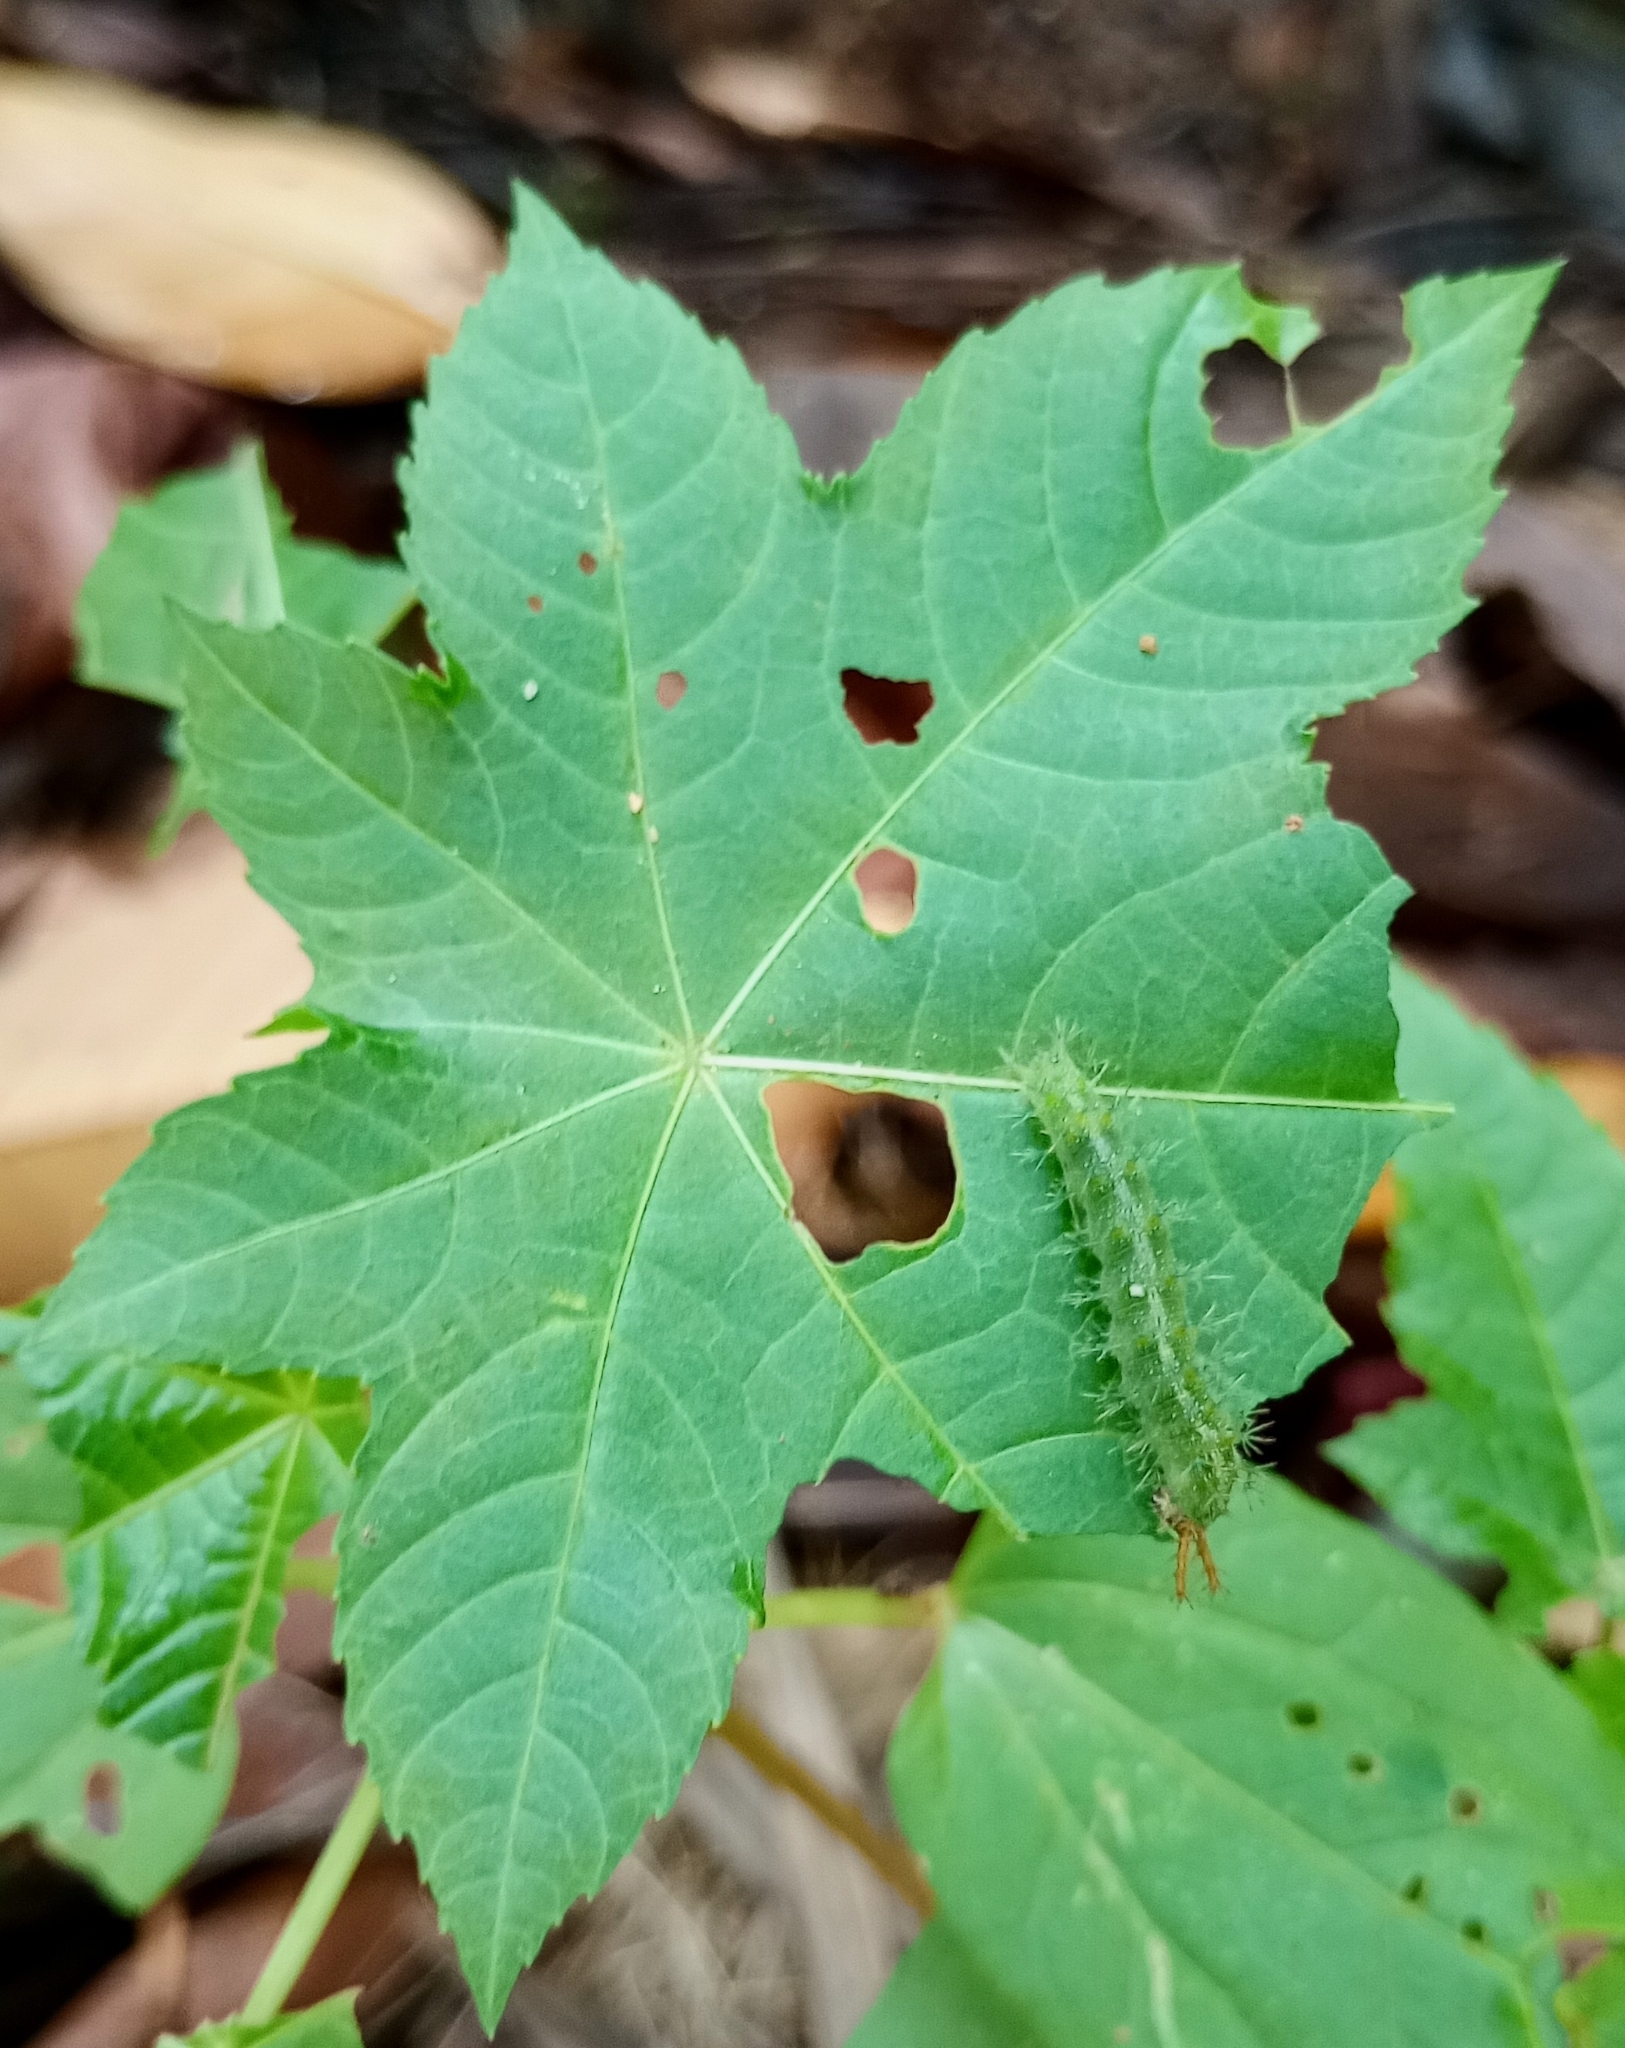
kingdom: Animalia
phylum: Arthropoda
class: Insecta
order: Lepidoptera
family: Nymphalidae
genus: Ariadne
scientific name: Ariadne merione
